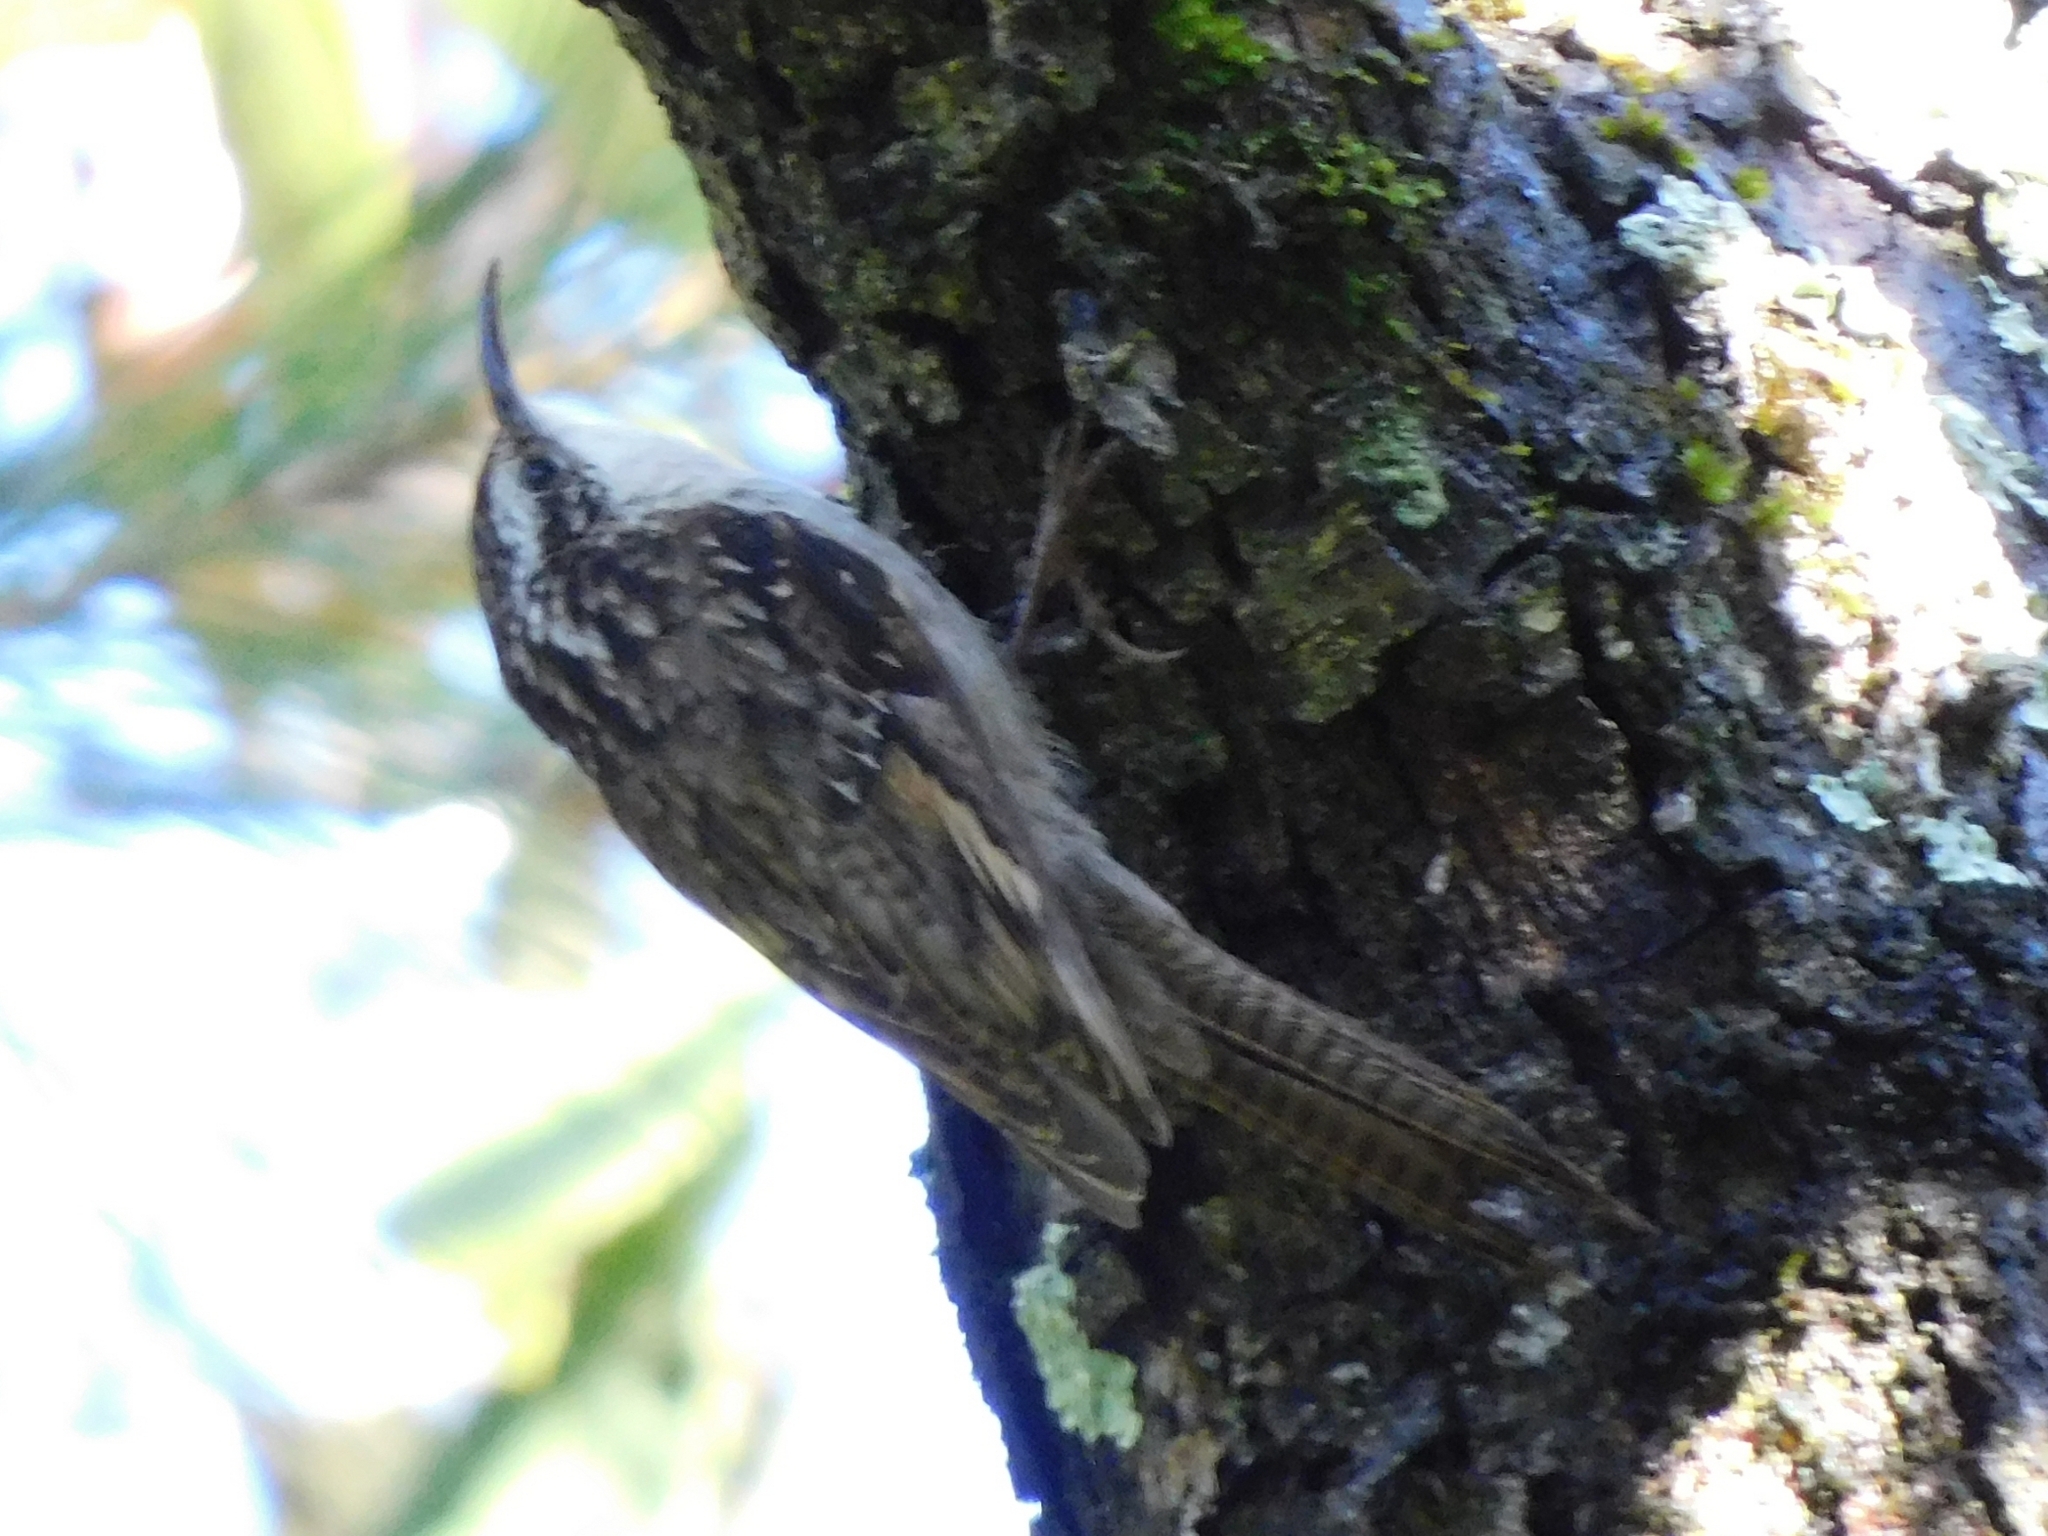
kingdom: Animalia
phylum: Chordata
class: Aves
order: Passeriformes
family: Certhiidae
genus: Certhia
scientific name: Certhia himalayana
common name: Bar-tailed treecreeper
